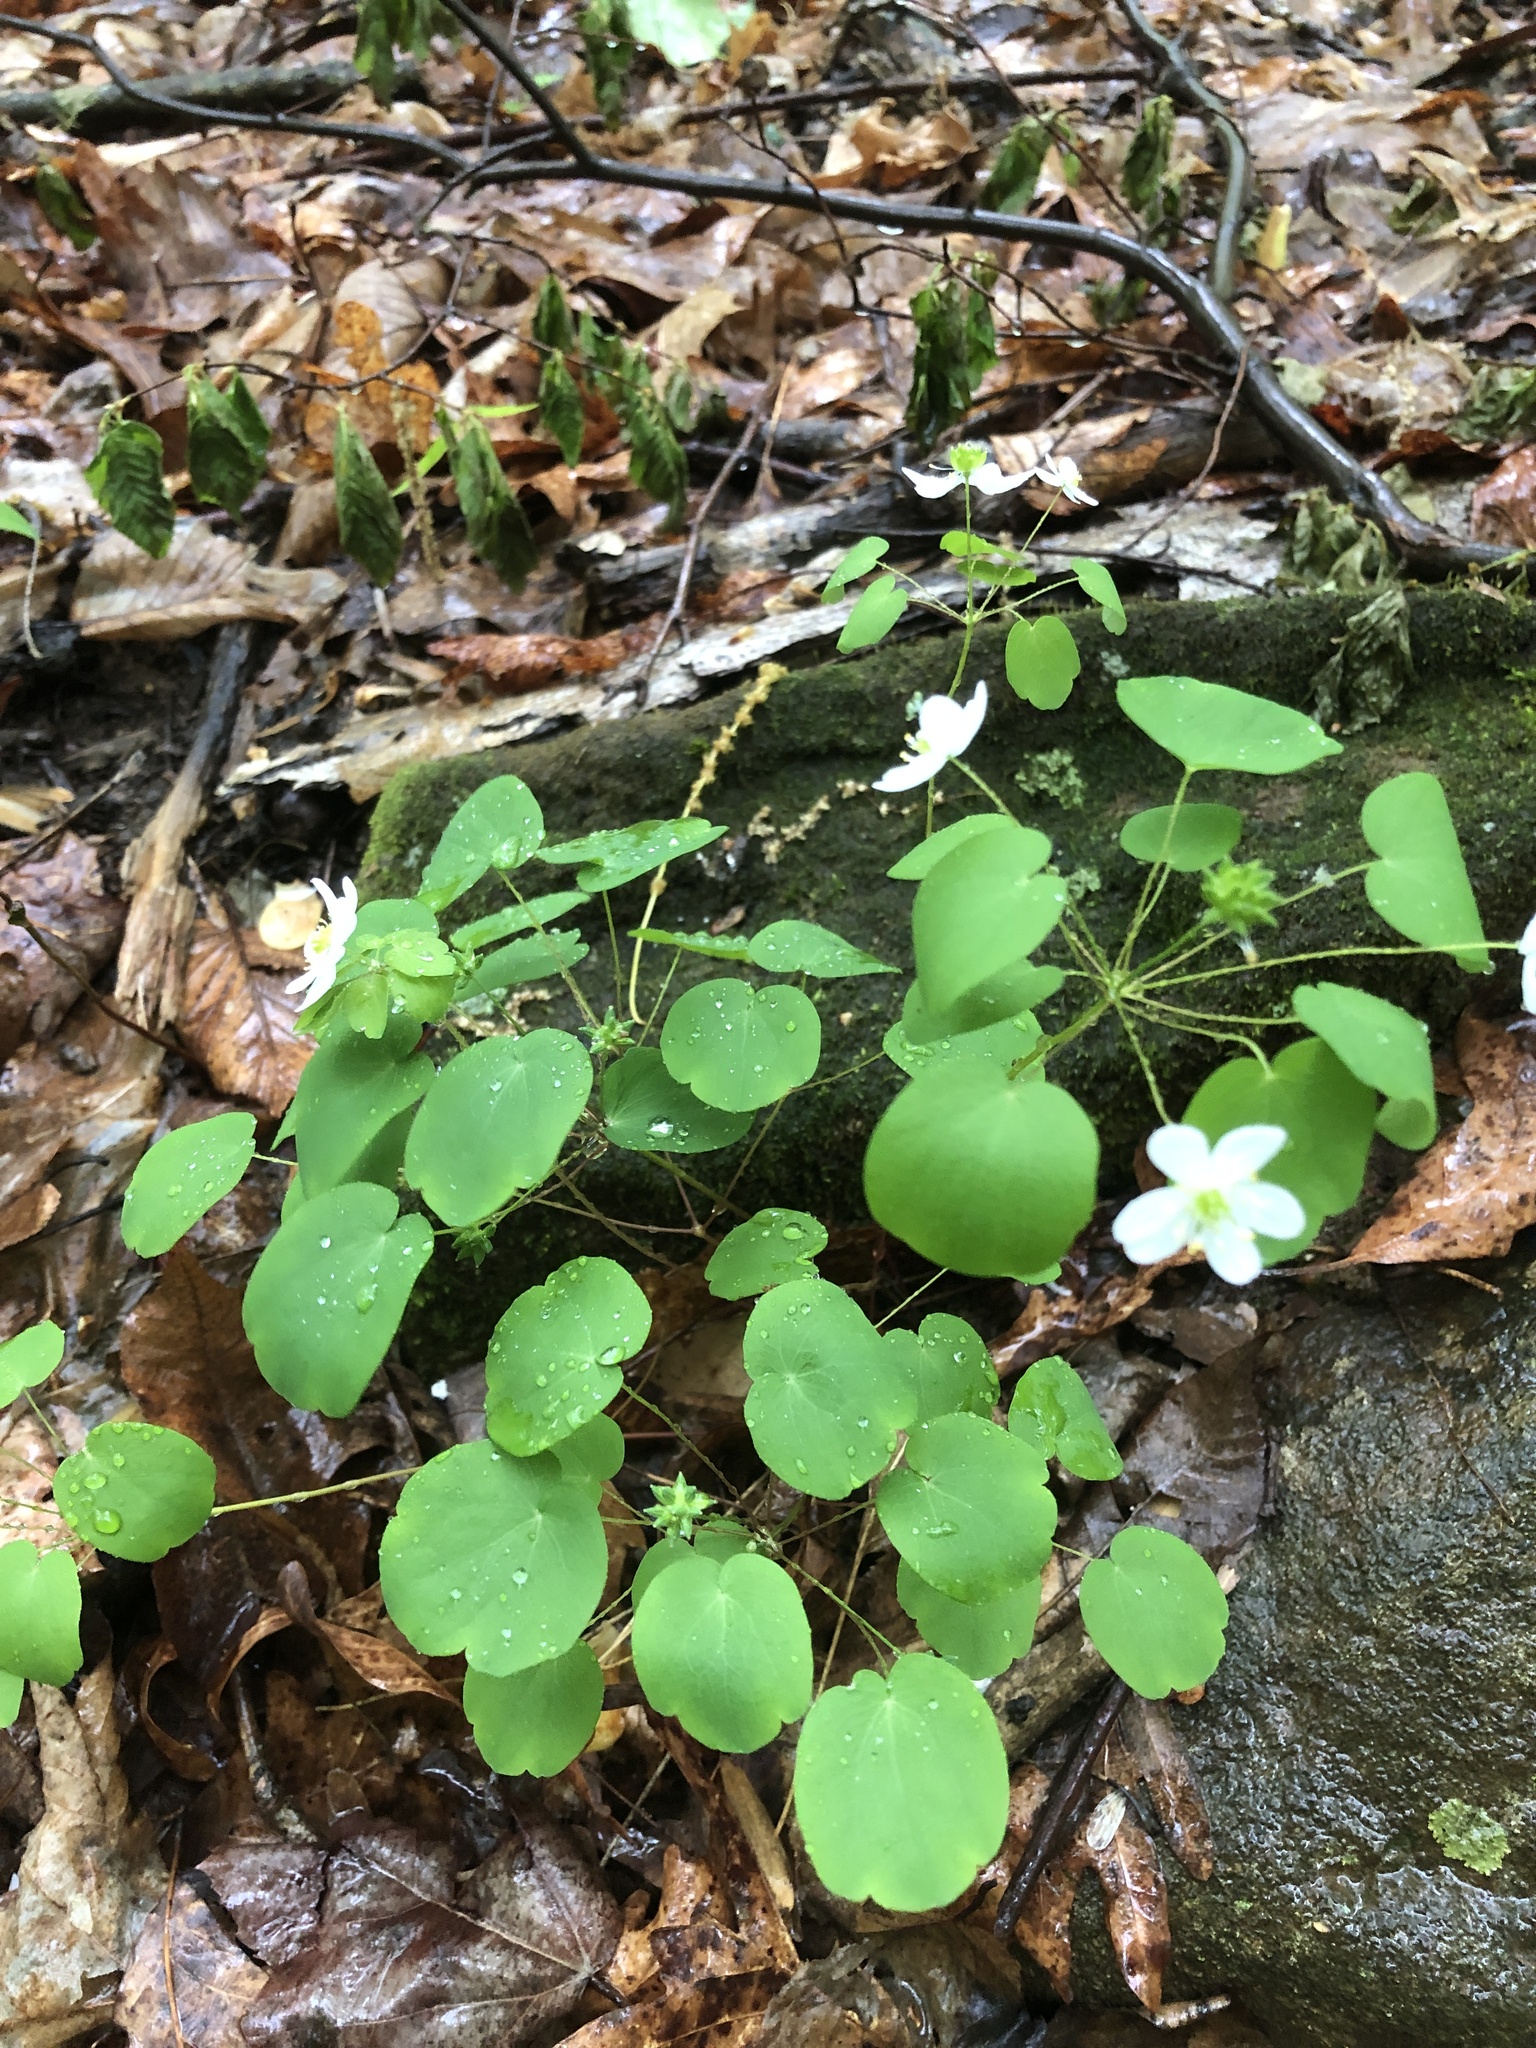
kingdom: Plantae
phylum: Tracheophyta
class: Magnoliopsida
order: Ranunculales
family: Ranunculaceae
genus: Thalictrum
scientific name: Thalictrum thalictroides
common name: Rue-anemone
